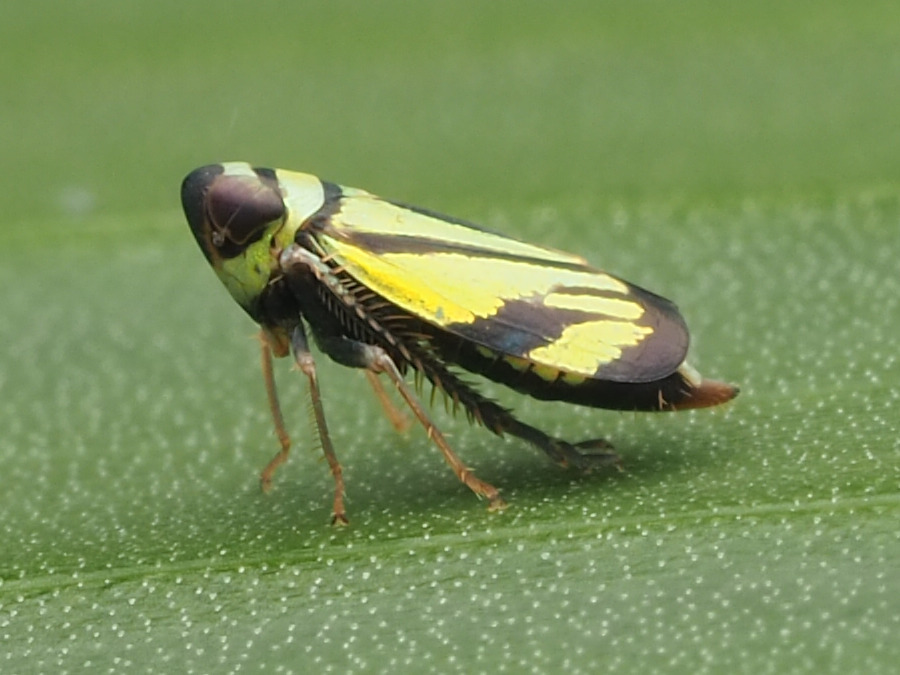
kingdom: Animalia
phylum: Arthropoda
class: Insecta
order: Hemiptera
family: Cicadellidae
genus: Stirellus
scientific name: Stirellus bicolor
